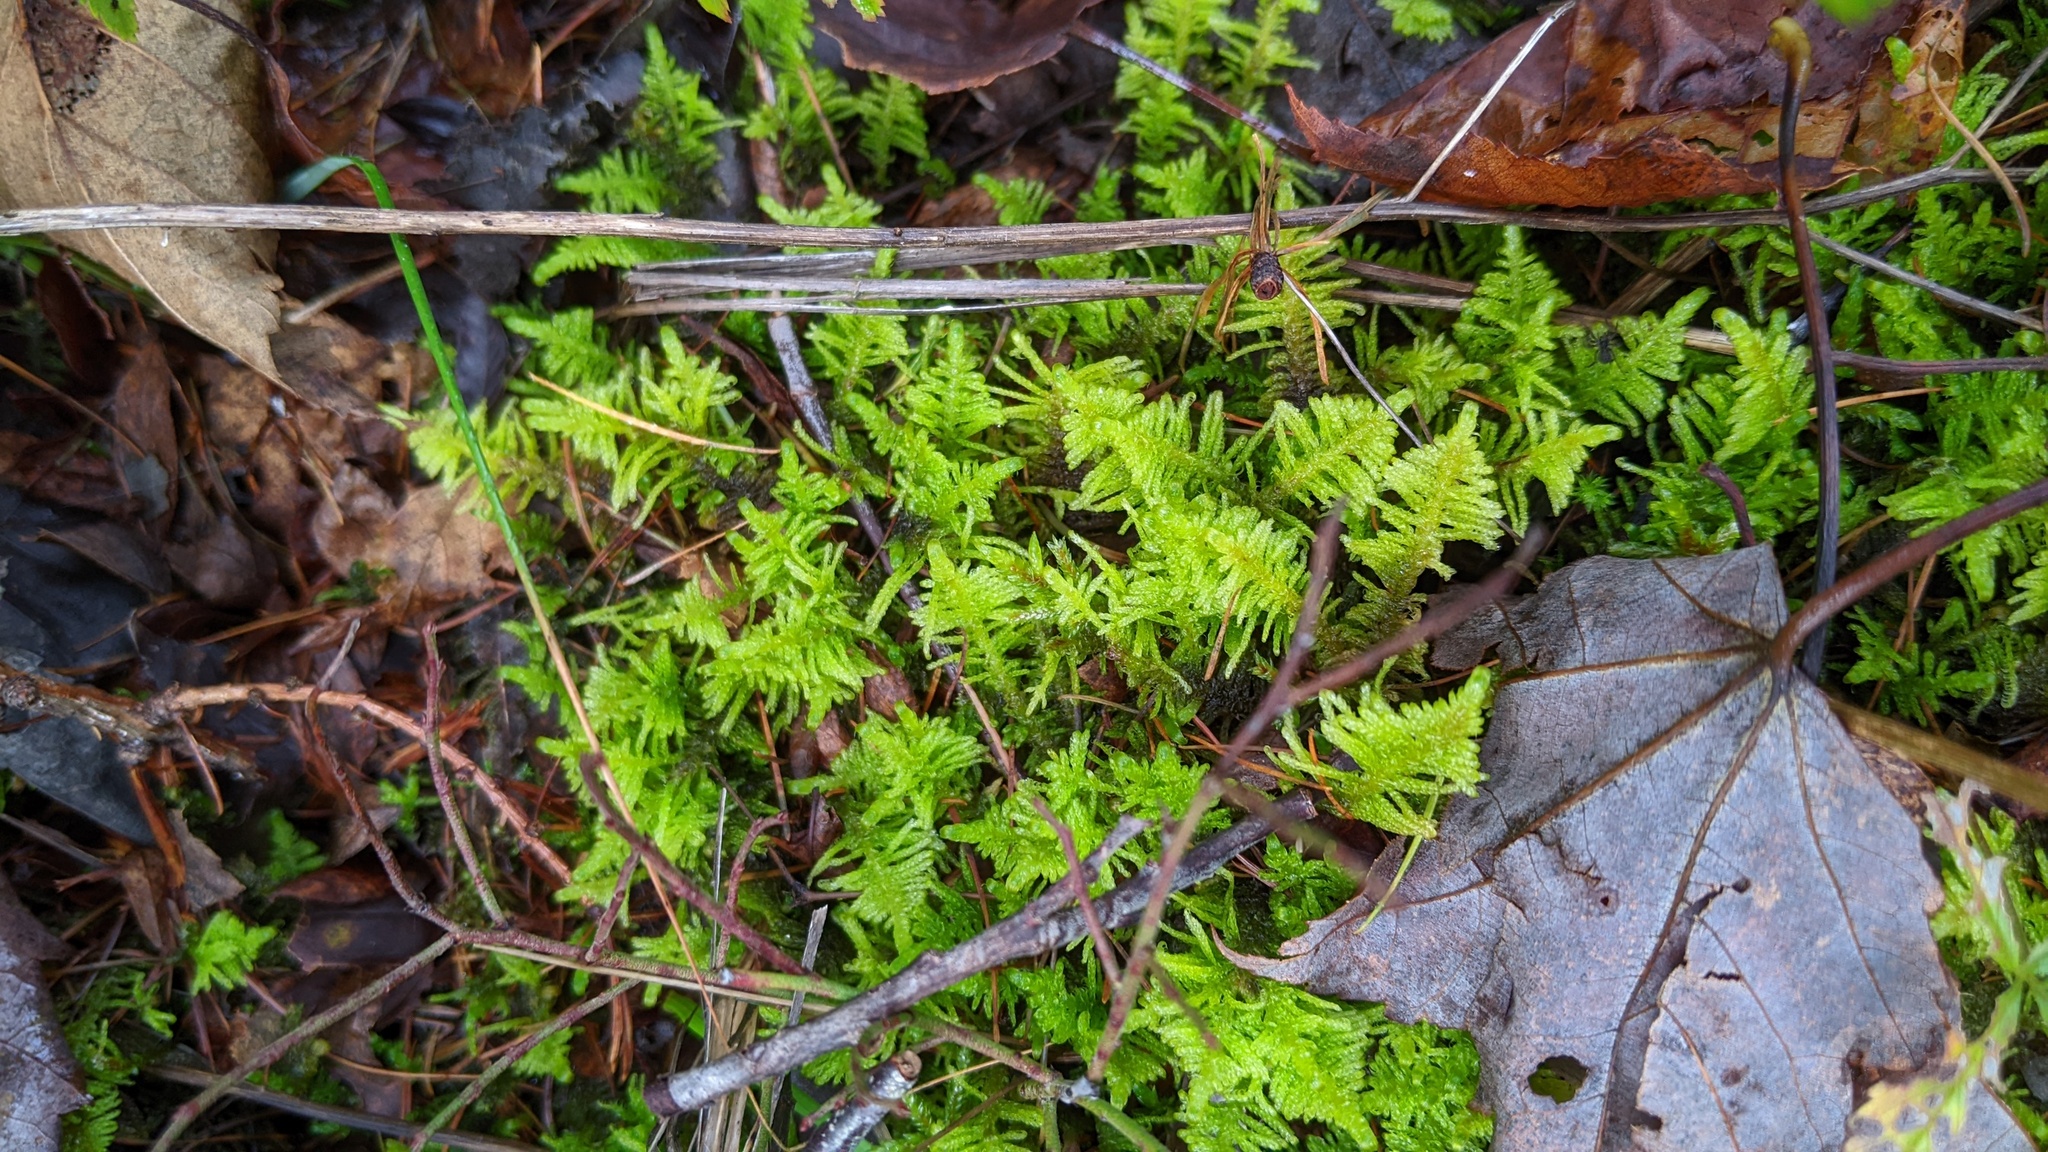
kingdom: Plantae
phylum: Bryophyta
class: Bryopsida
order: Hypnales
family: Pylaisiaceae
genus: Ptilium
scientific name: Ptilium crista-castrensis
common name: Knight's plume moss
